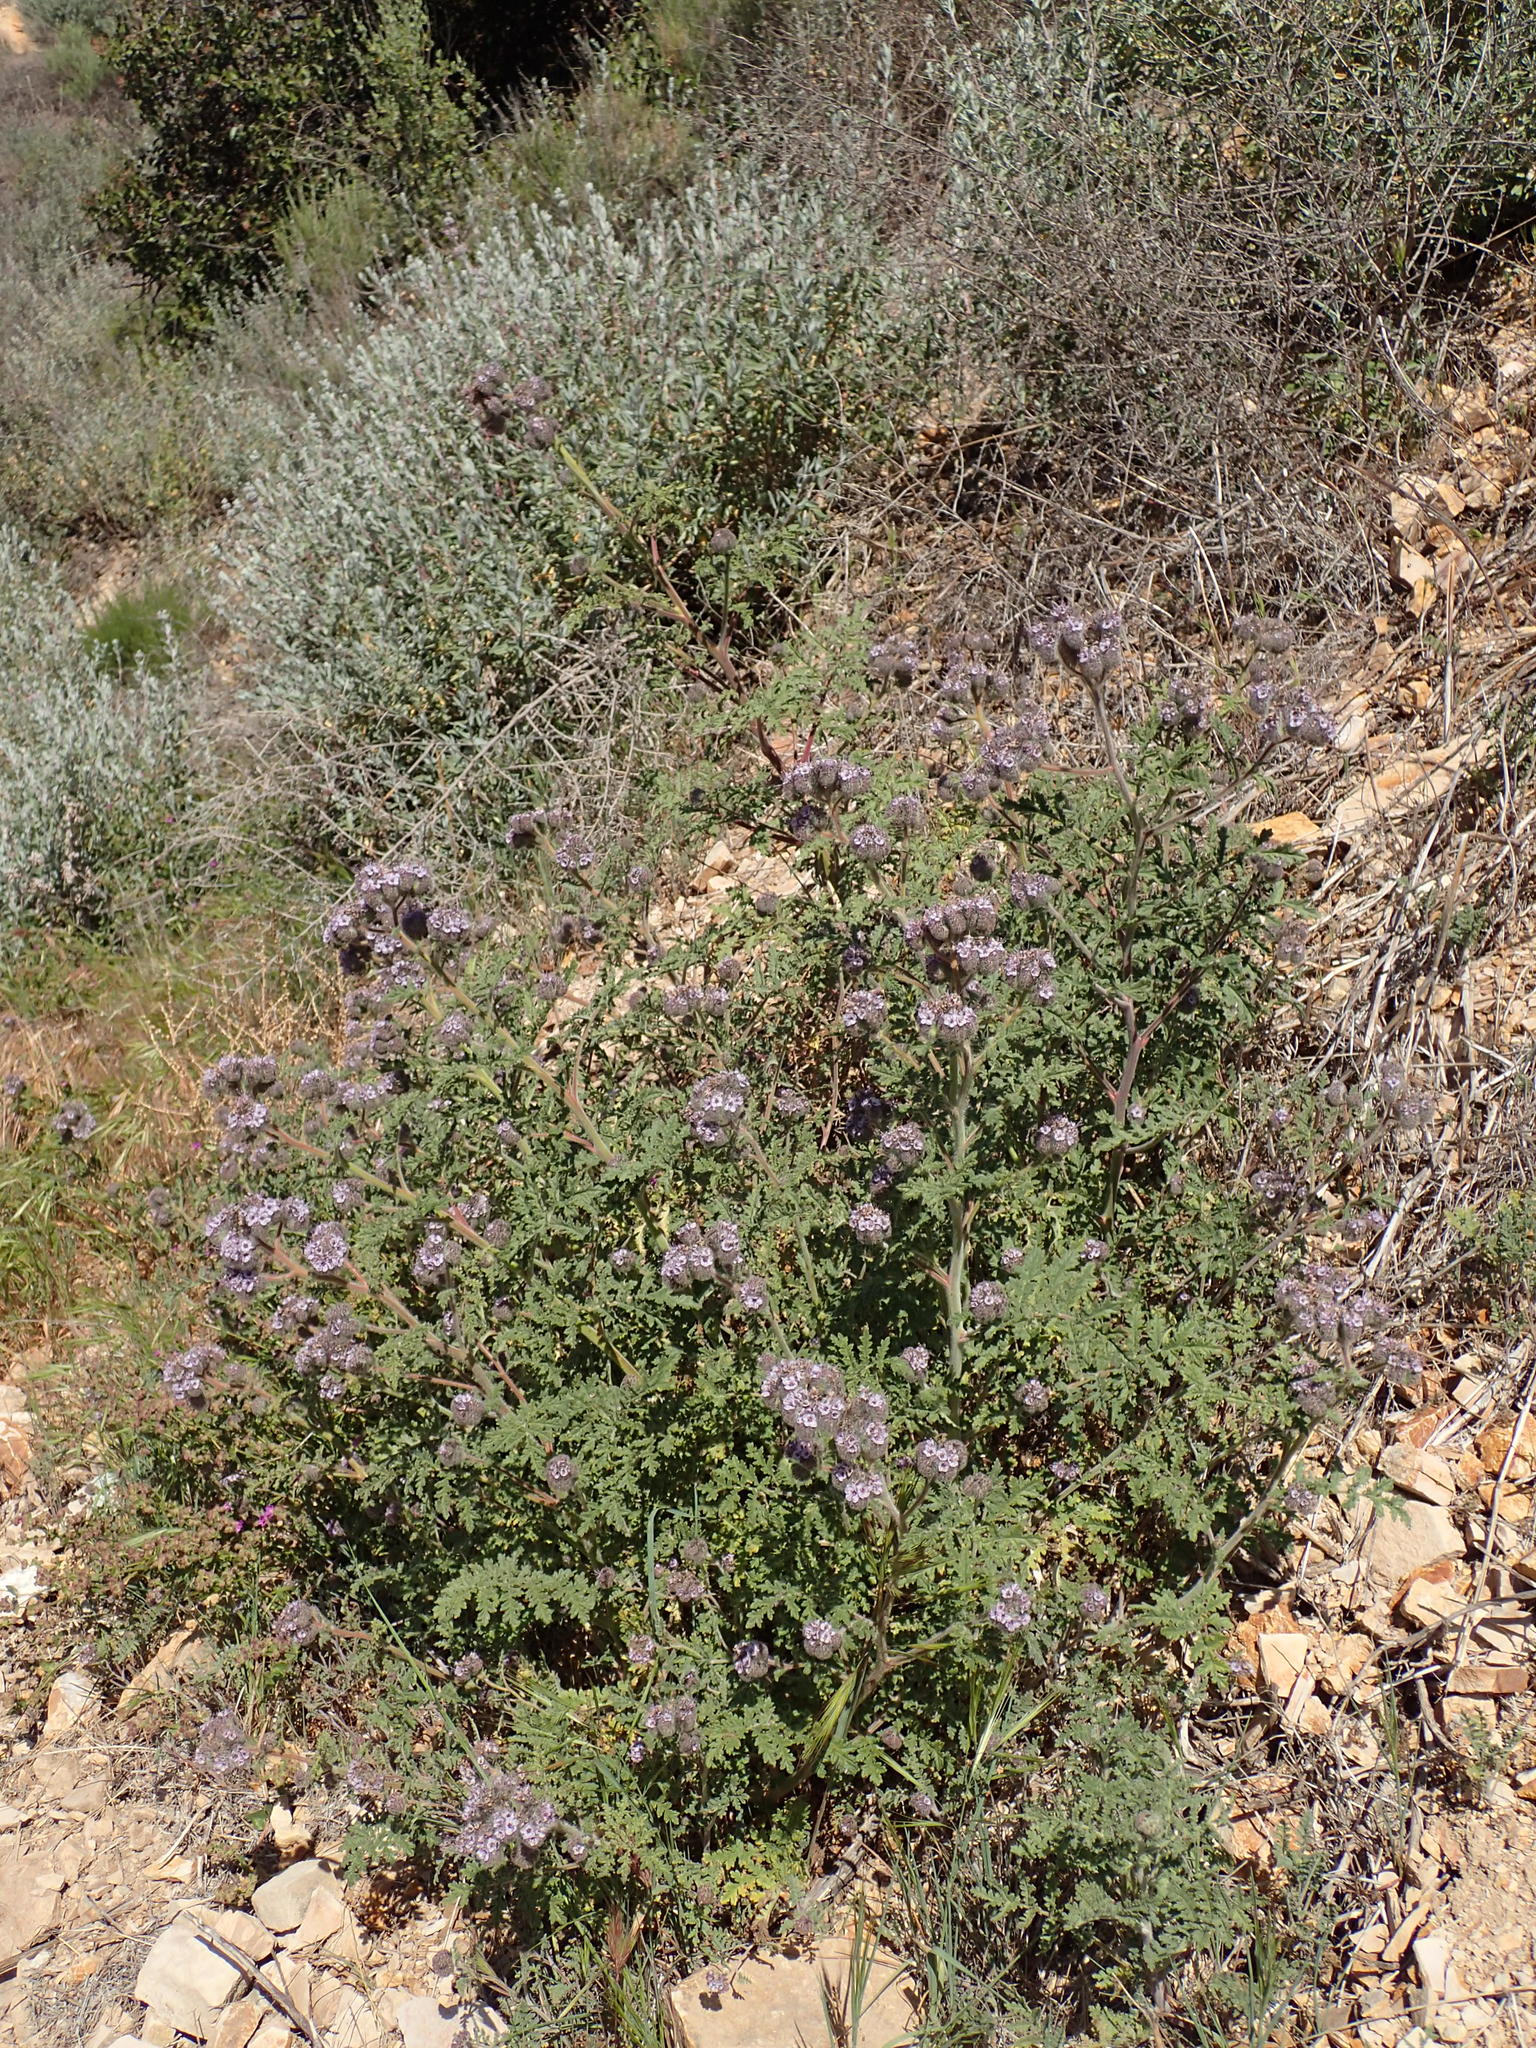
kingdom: Plantae
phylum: Tracheophyta
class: Magnoliopsida
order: Boraginales
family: Hydrophyllaceae
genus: Phacelia
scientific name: Phacelia hubbyi
